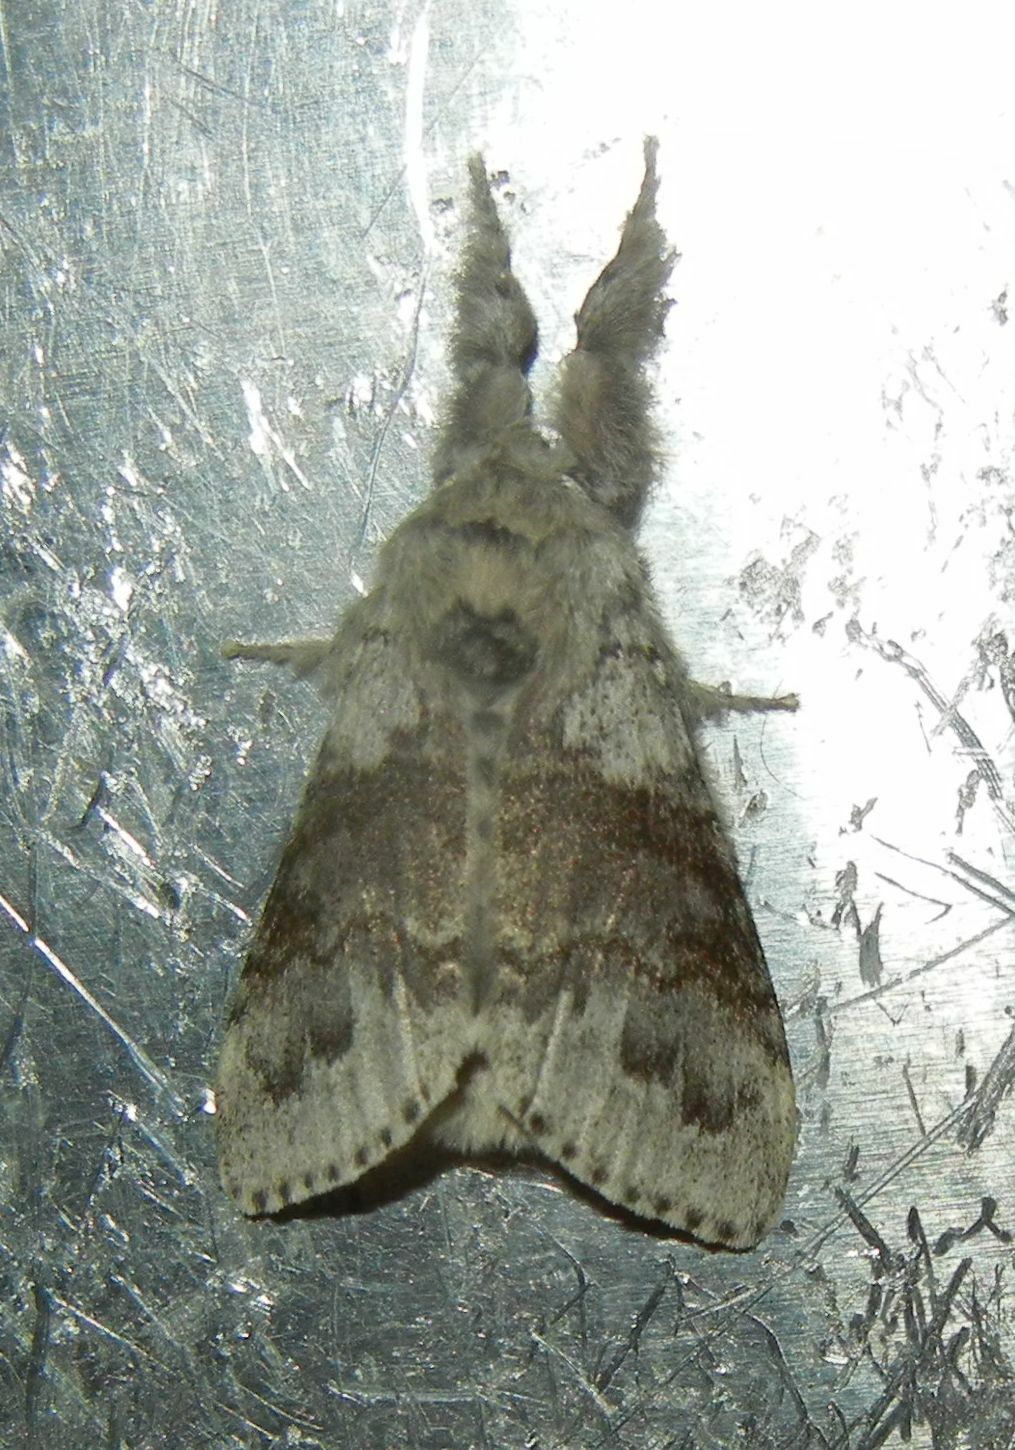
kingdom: Animalia
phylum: Arthropoda
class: Insecta
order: Lepidoptera
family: Erebidae
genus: Calliteara
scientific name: Calliteara pudibunda
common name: Pale tussock
